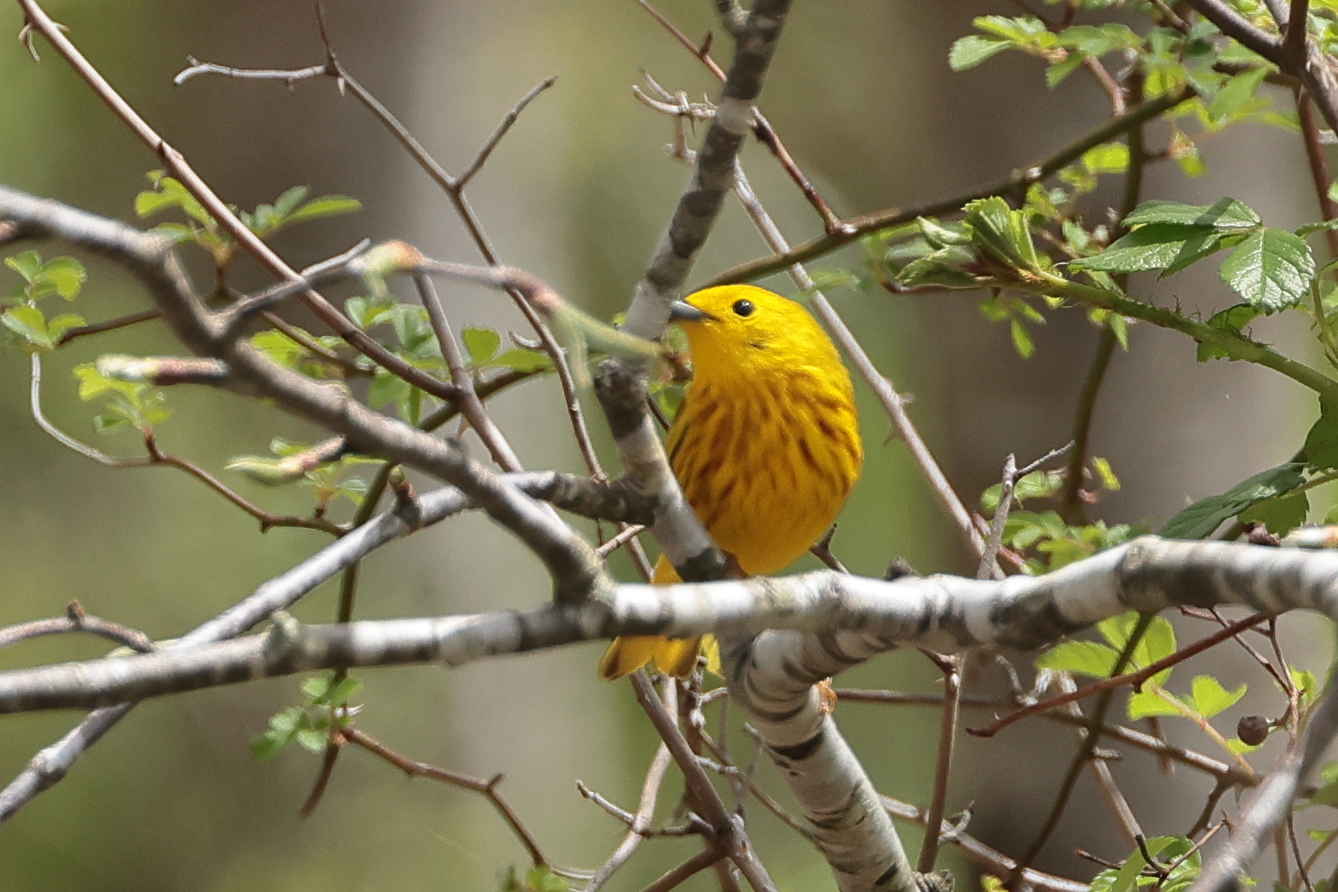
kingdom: Animalia
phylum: Chordata
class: Aves
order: Passeriformes
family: Parulidae
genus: Setophaga
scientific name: Setophaga petechia
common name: Yellow warbler
